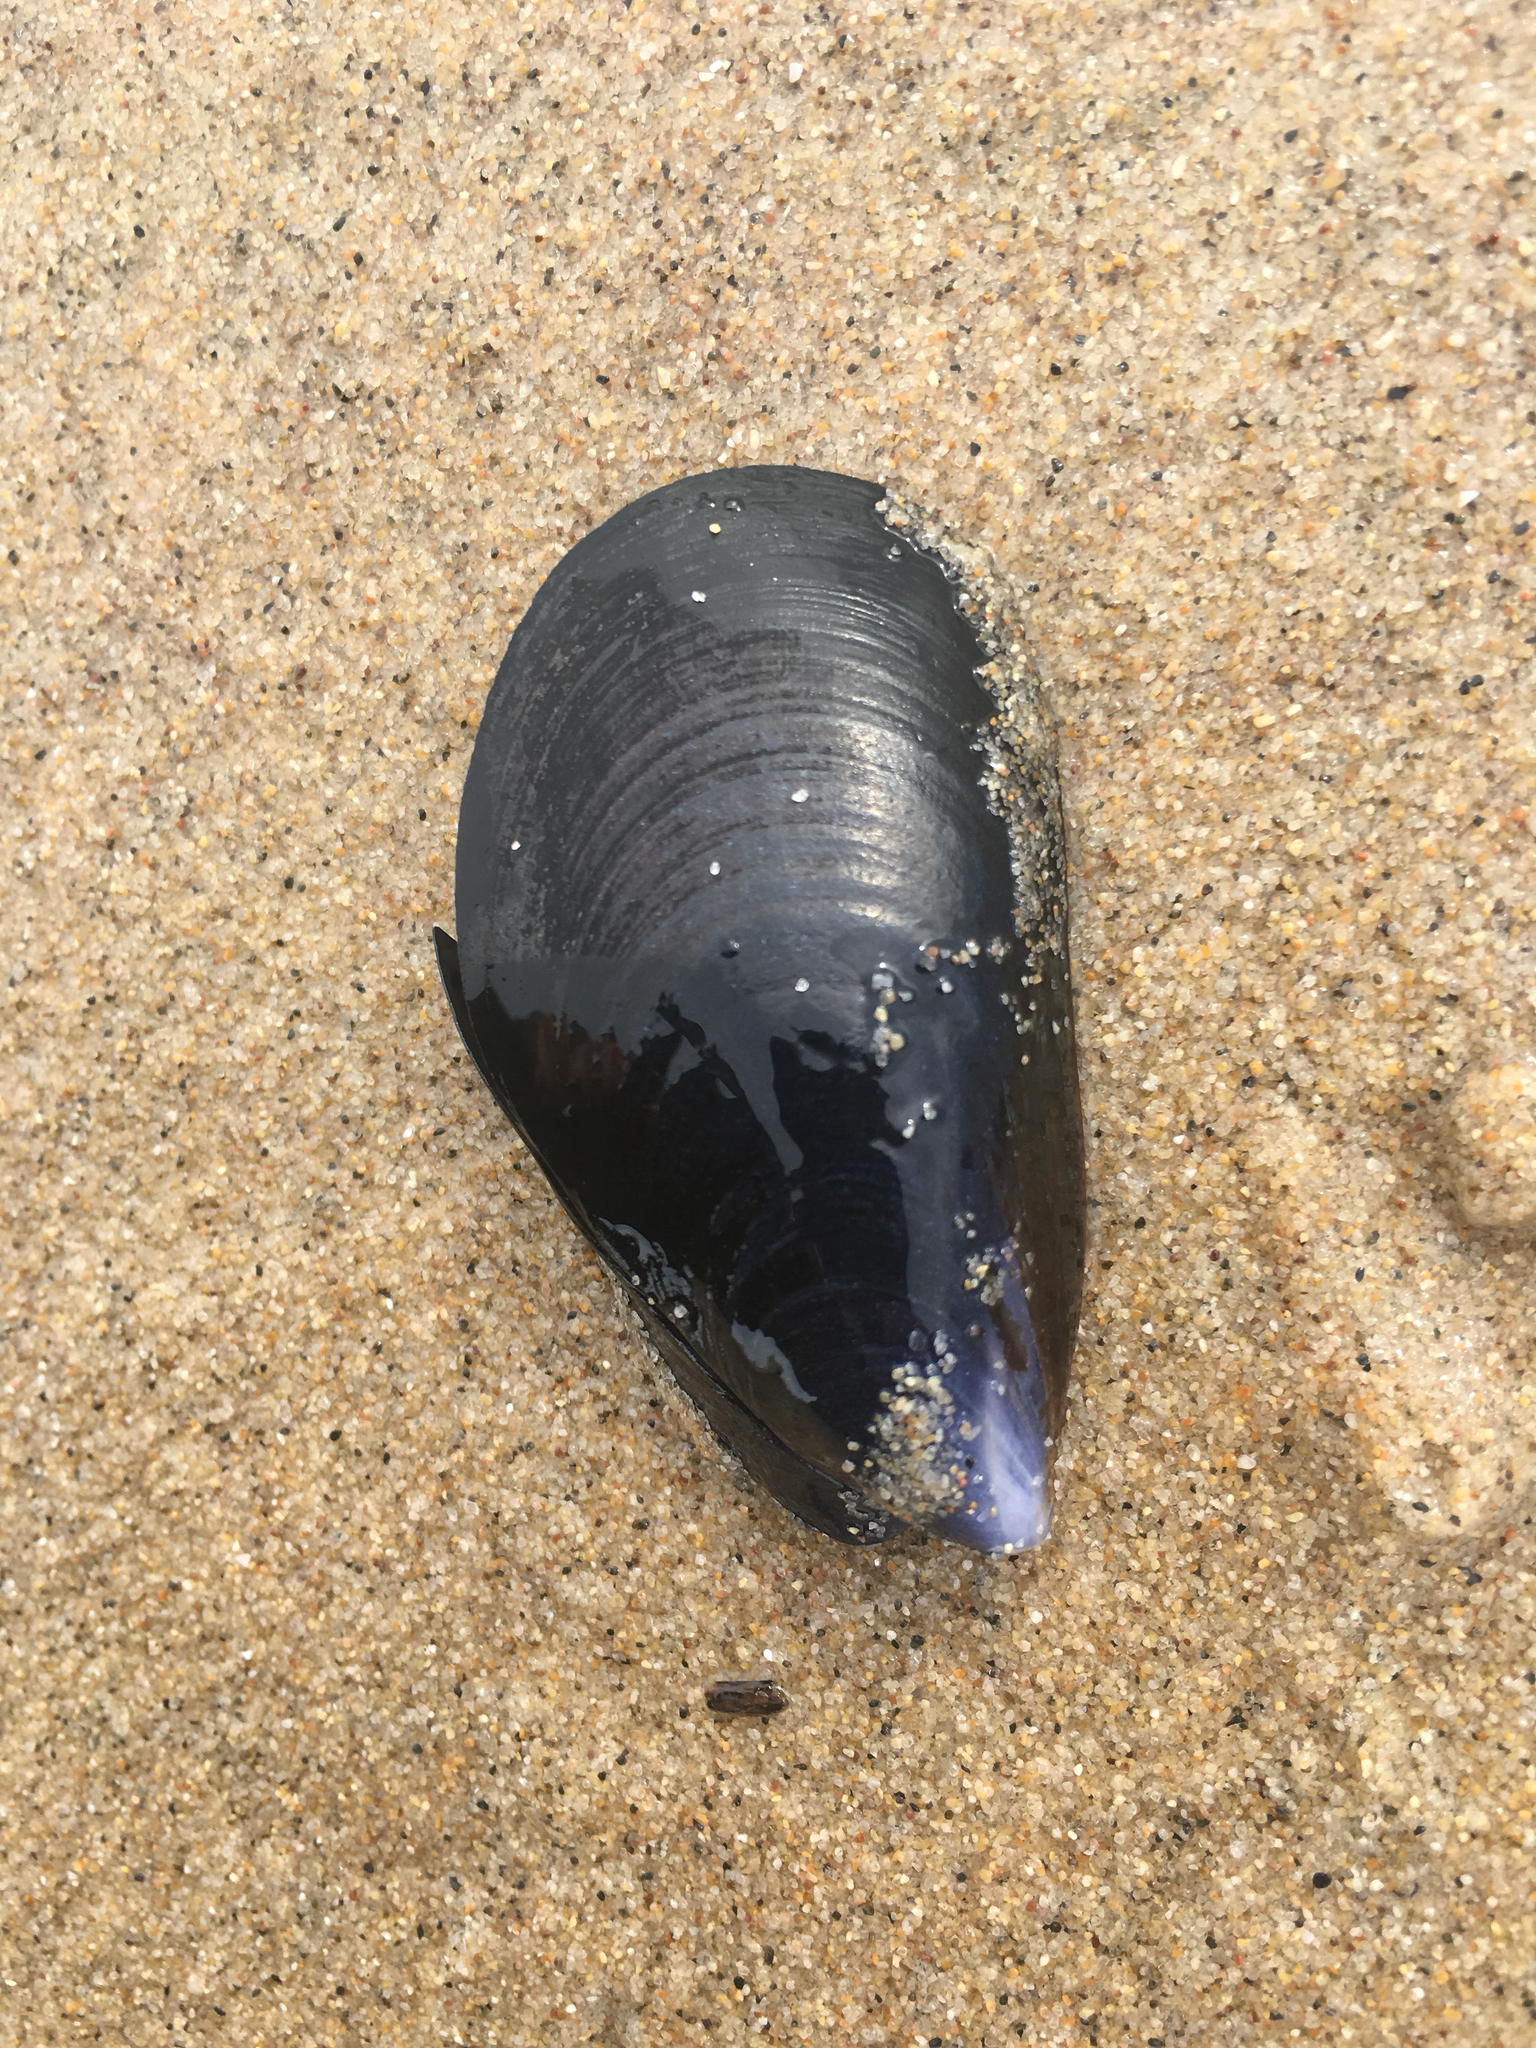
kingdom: Animalia
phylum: Mollusca
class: Bivalvia
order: Mytilida
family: Mytilidae
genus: Mytilus
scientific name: Mytilus galloprovincialis
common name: Mediterranean mussel
